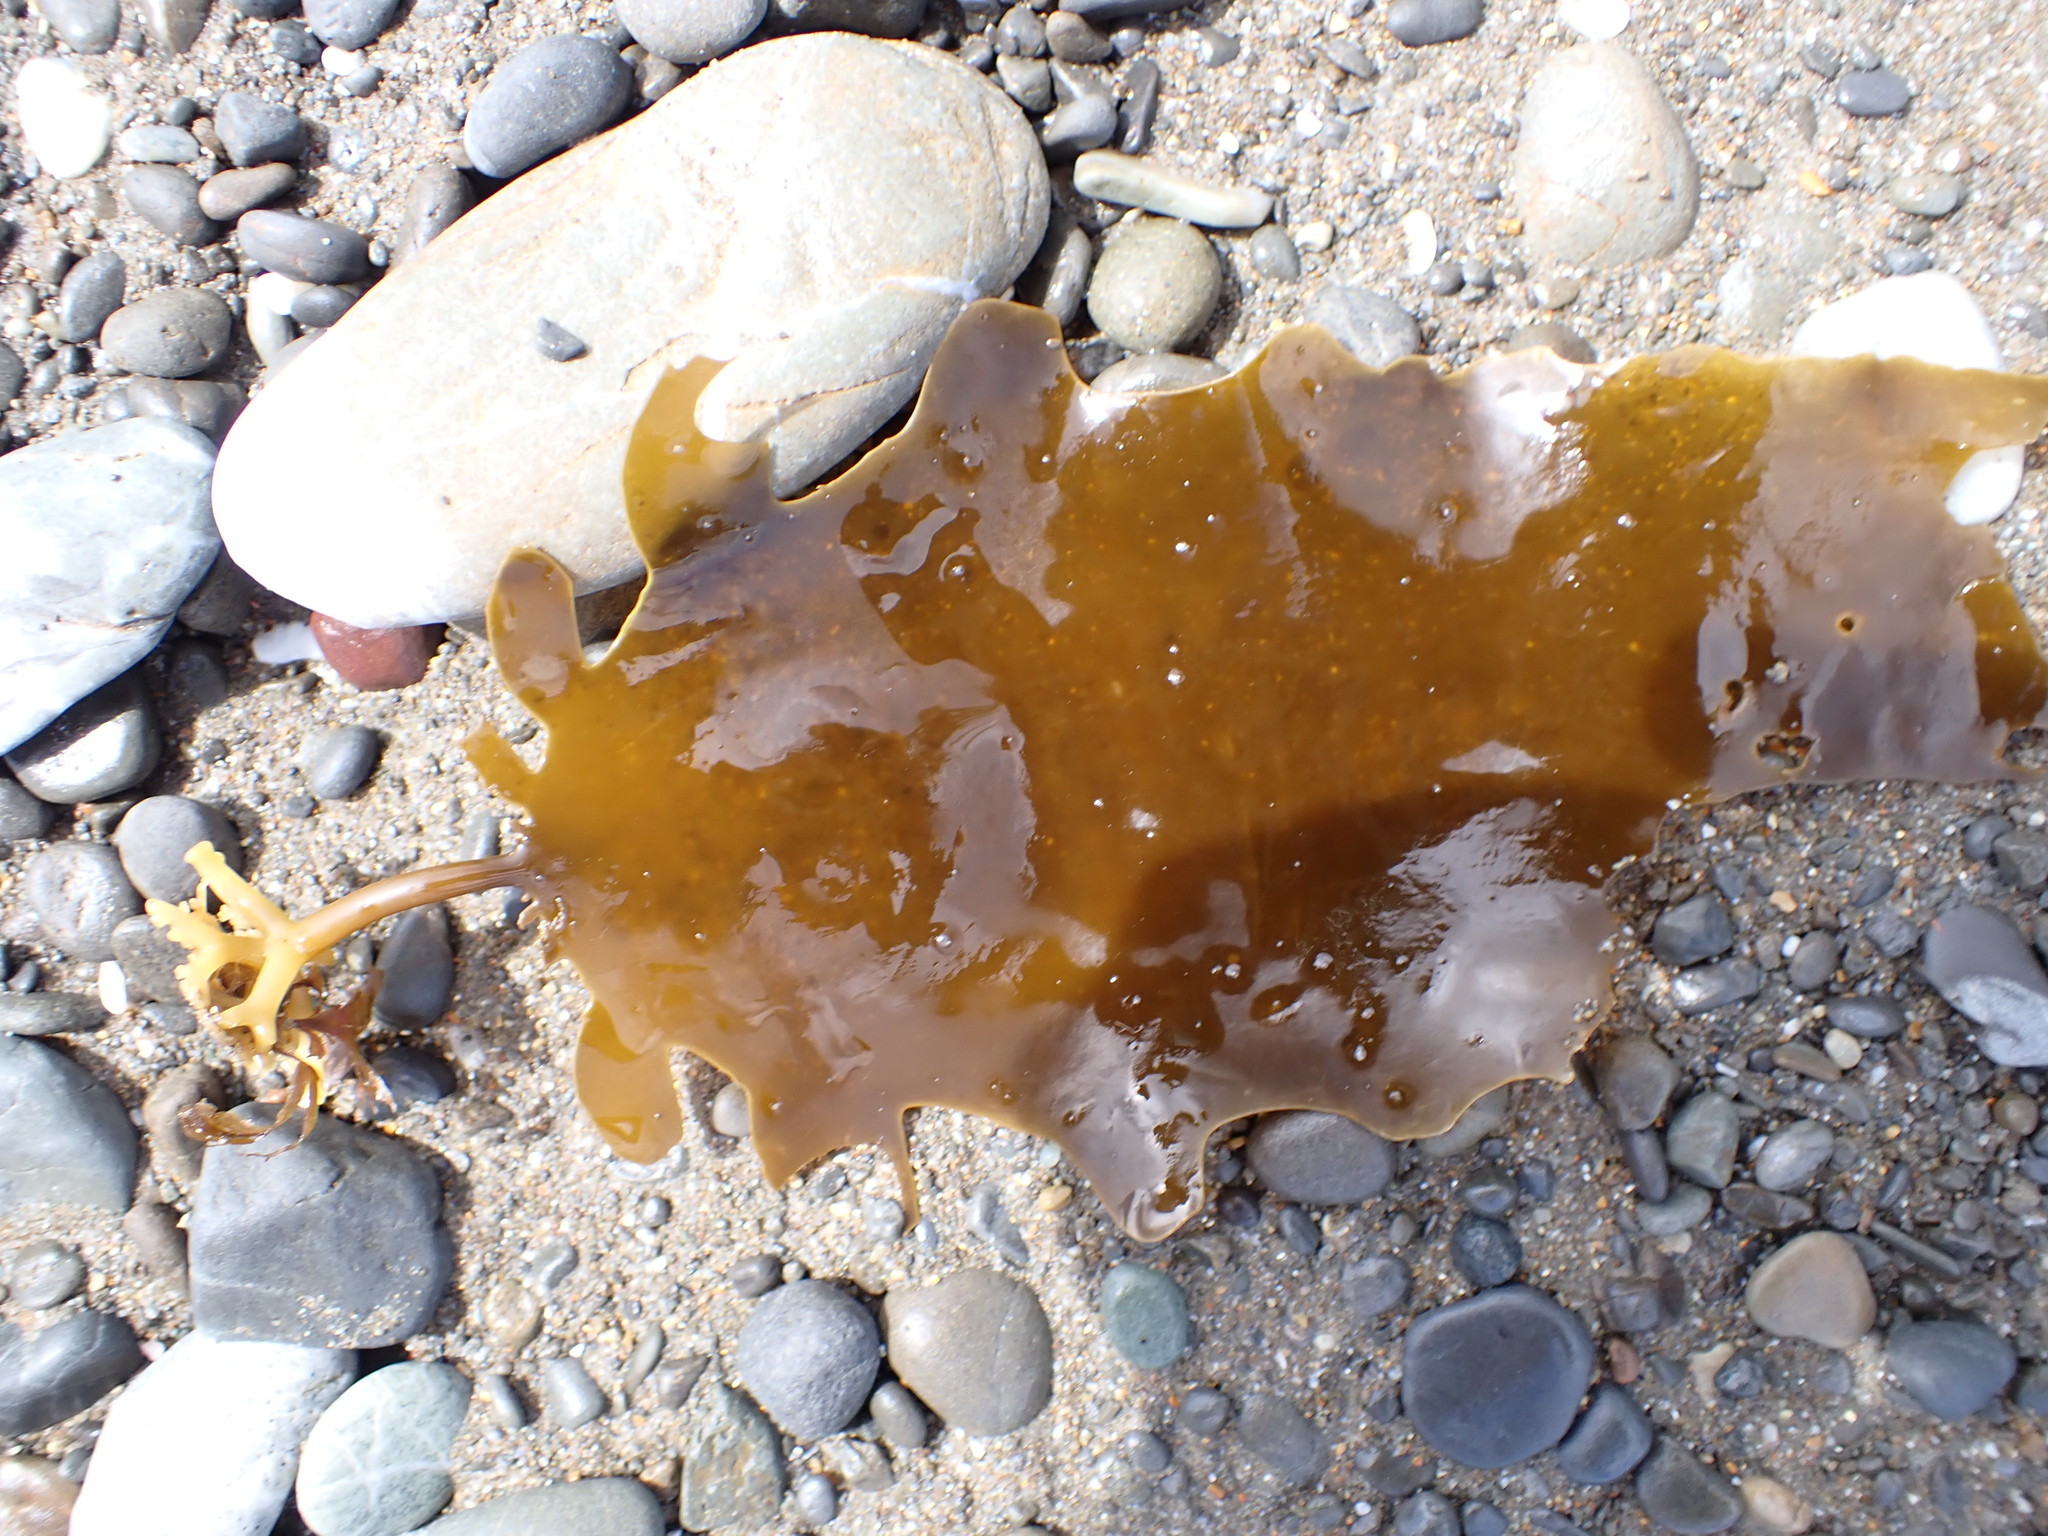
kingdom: Chromista
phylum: Ochrophyta
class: Phaeophyceae
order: Laminariales
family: Lessoniaceae
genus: Ecklonia
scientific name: Ecklonia radiata
